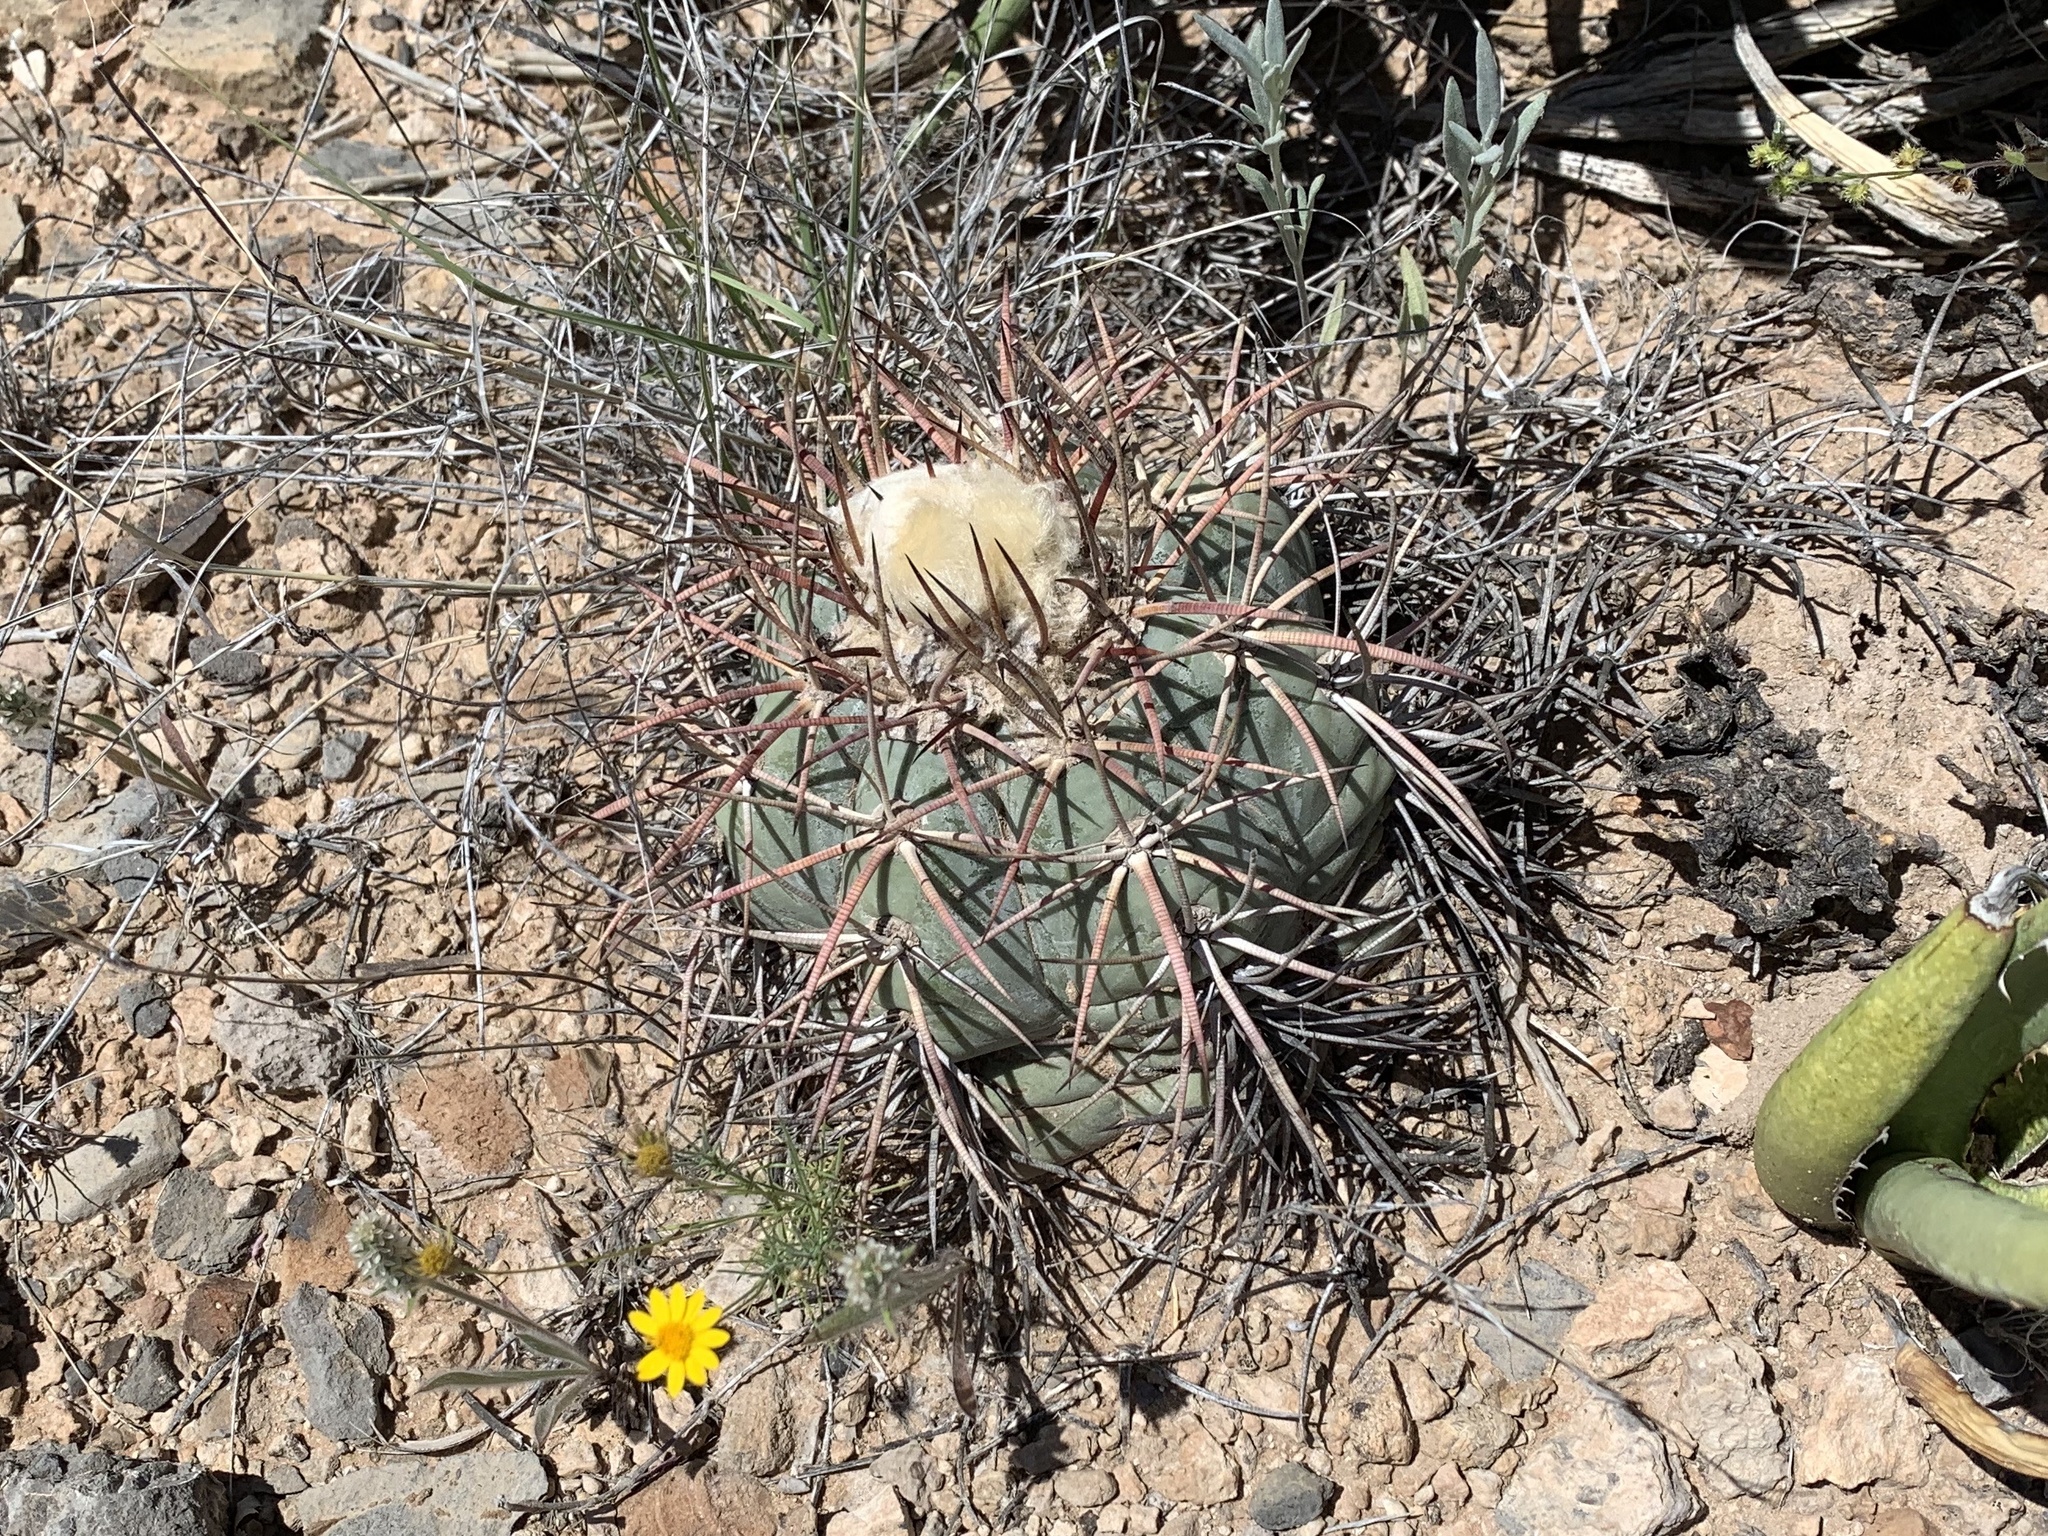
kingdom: Plantae
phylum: Tracheophyta
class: Magnoliopsida
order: Caryophyllales
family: Cactaceae
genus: Echinocactus
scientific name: Echinocactus horizonthalonius
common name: Devilshead
